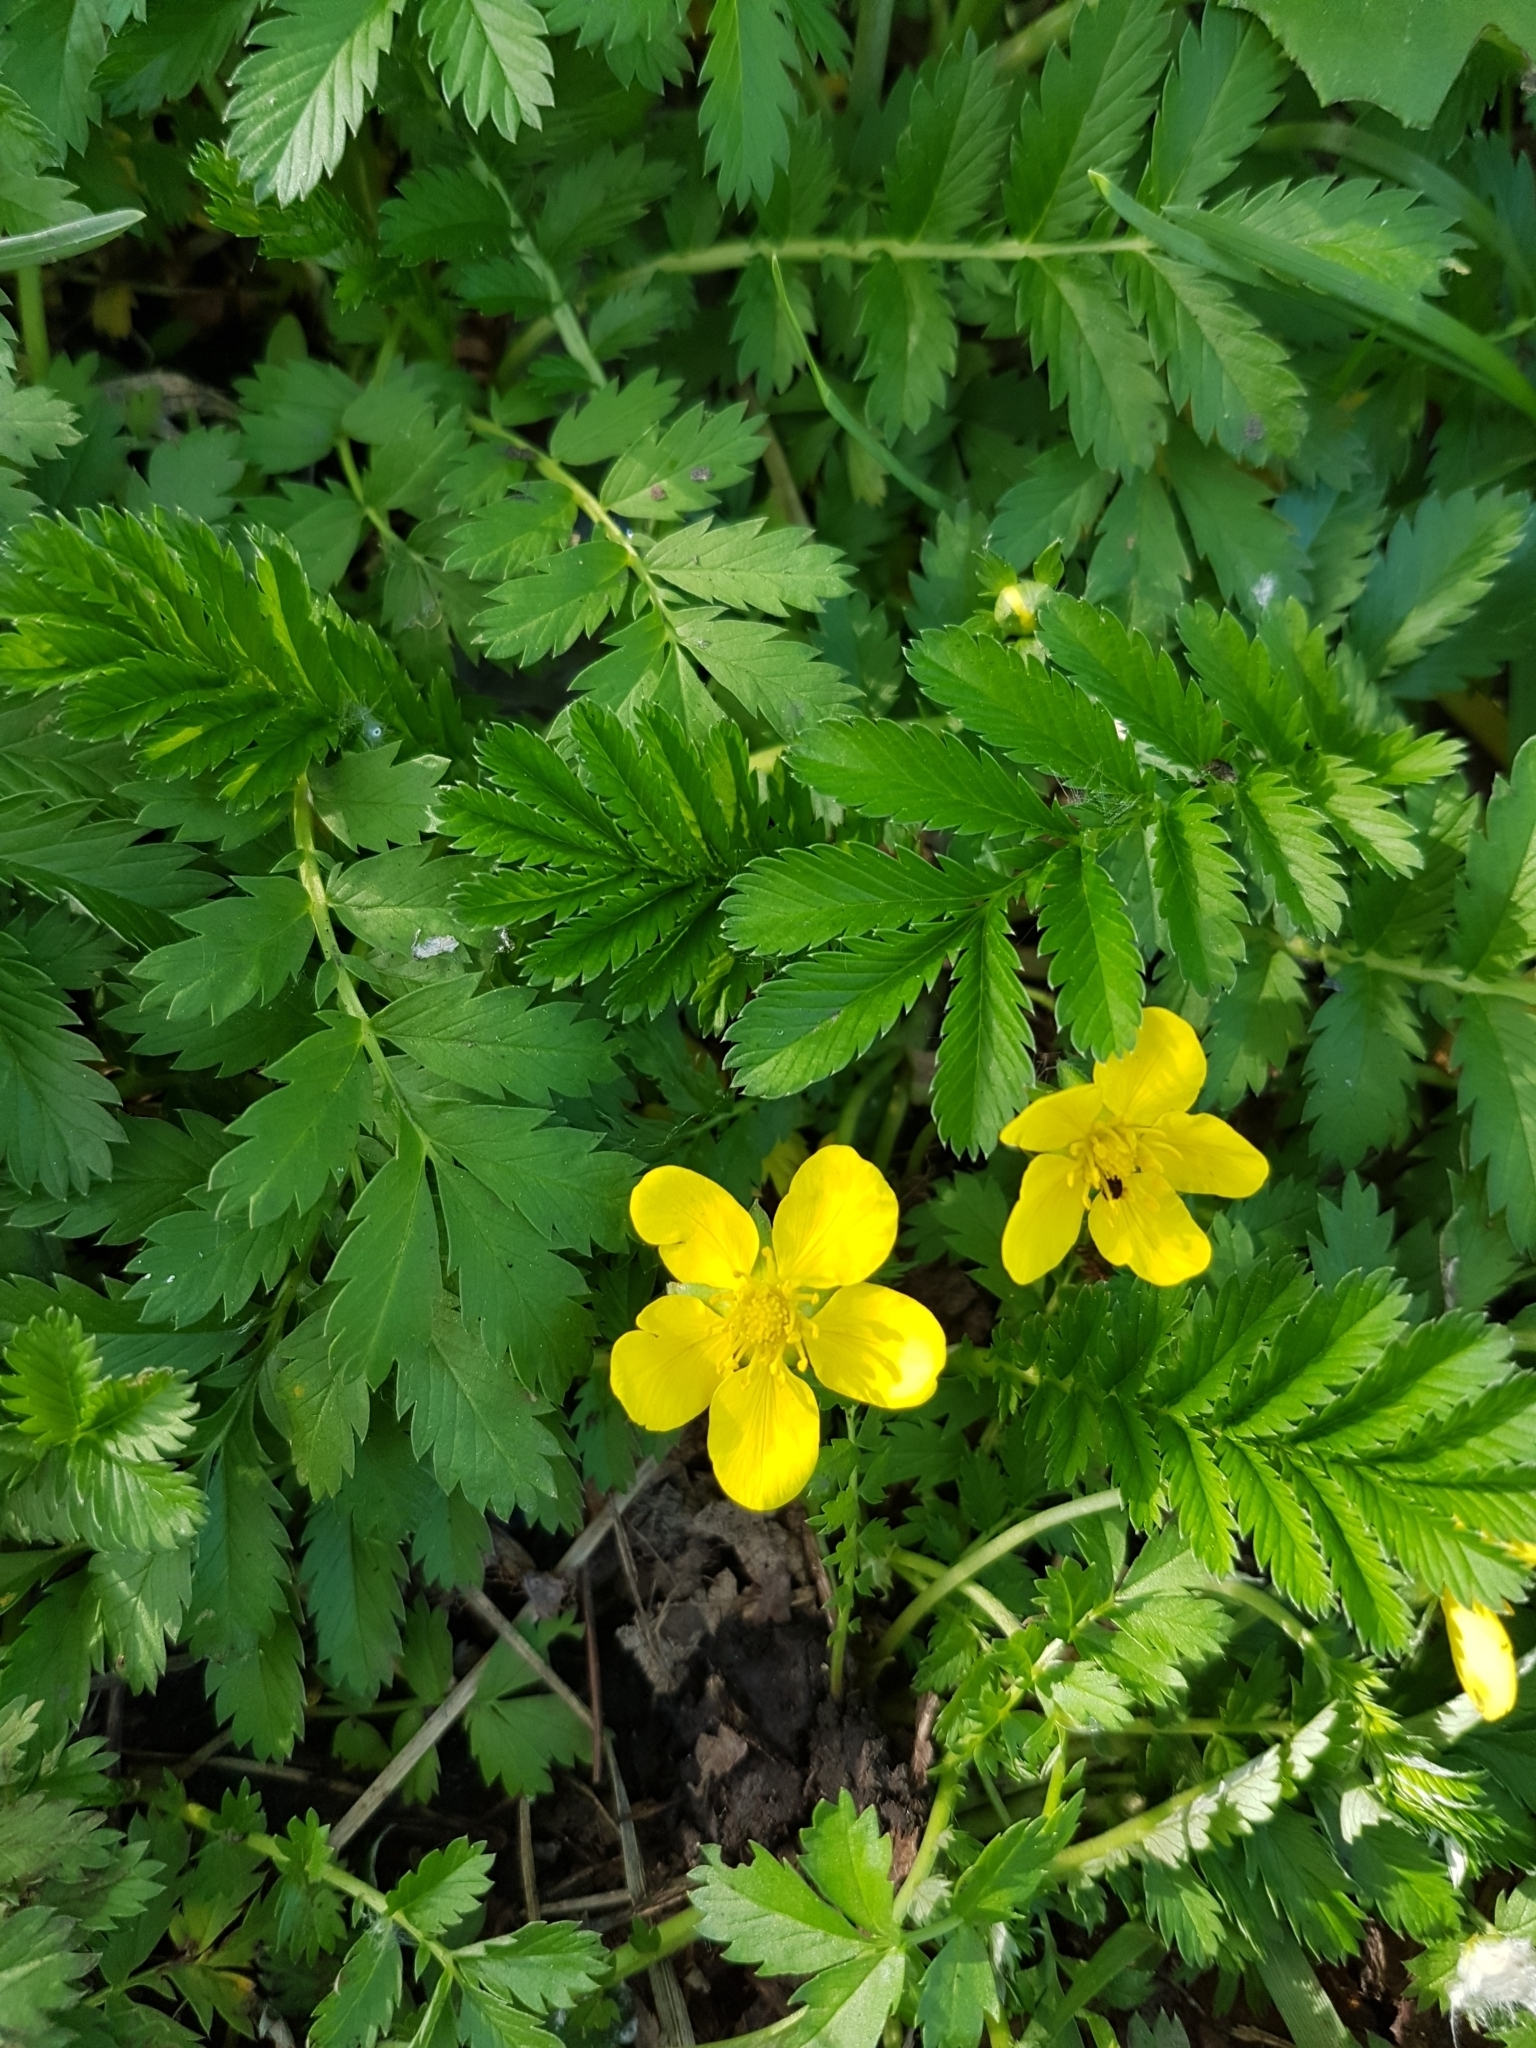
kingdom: Plantae
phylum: Tracheophyta
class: Magnoliopsida
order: Rosales
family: Rosaceae
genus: Argentina
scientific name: Argentina anserina
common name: Common silverweed
